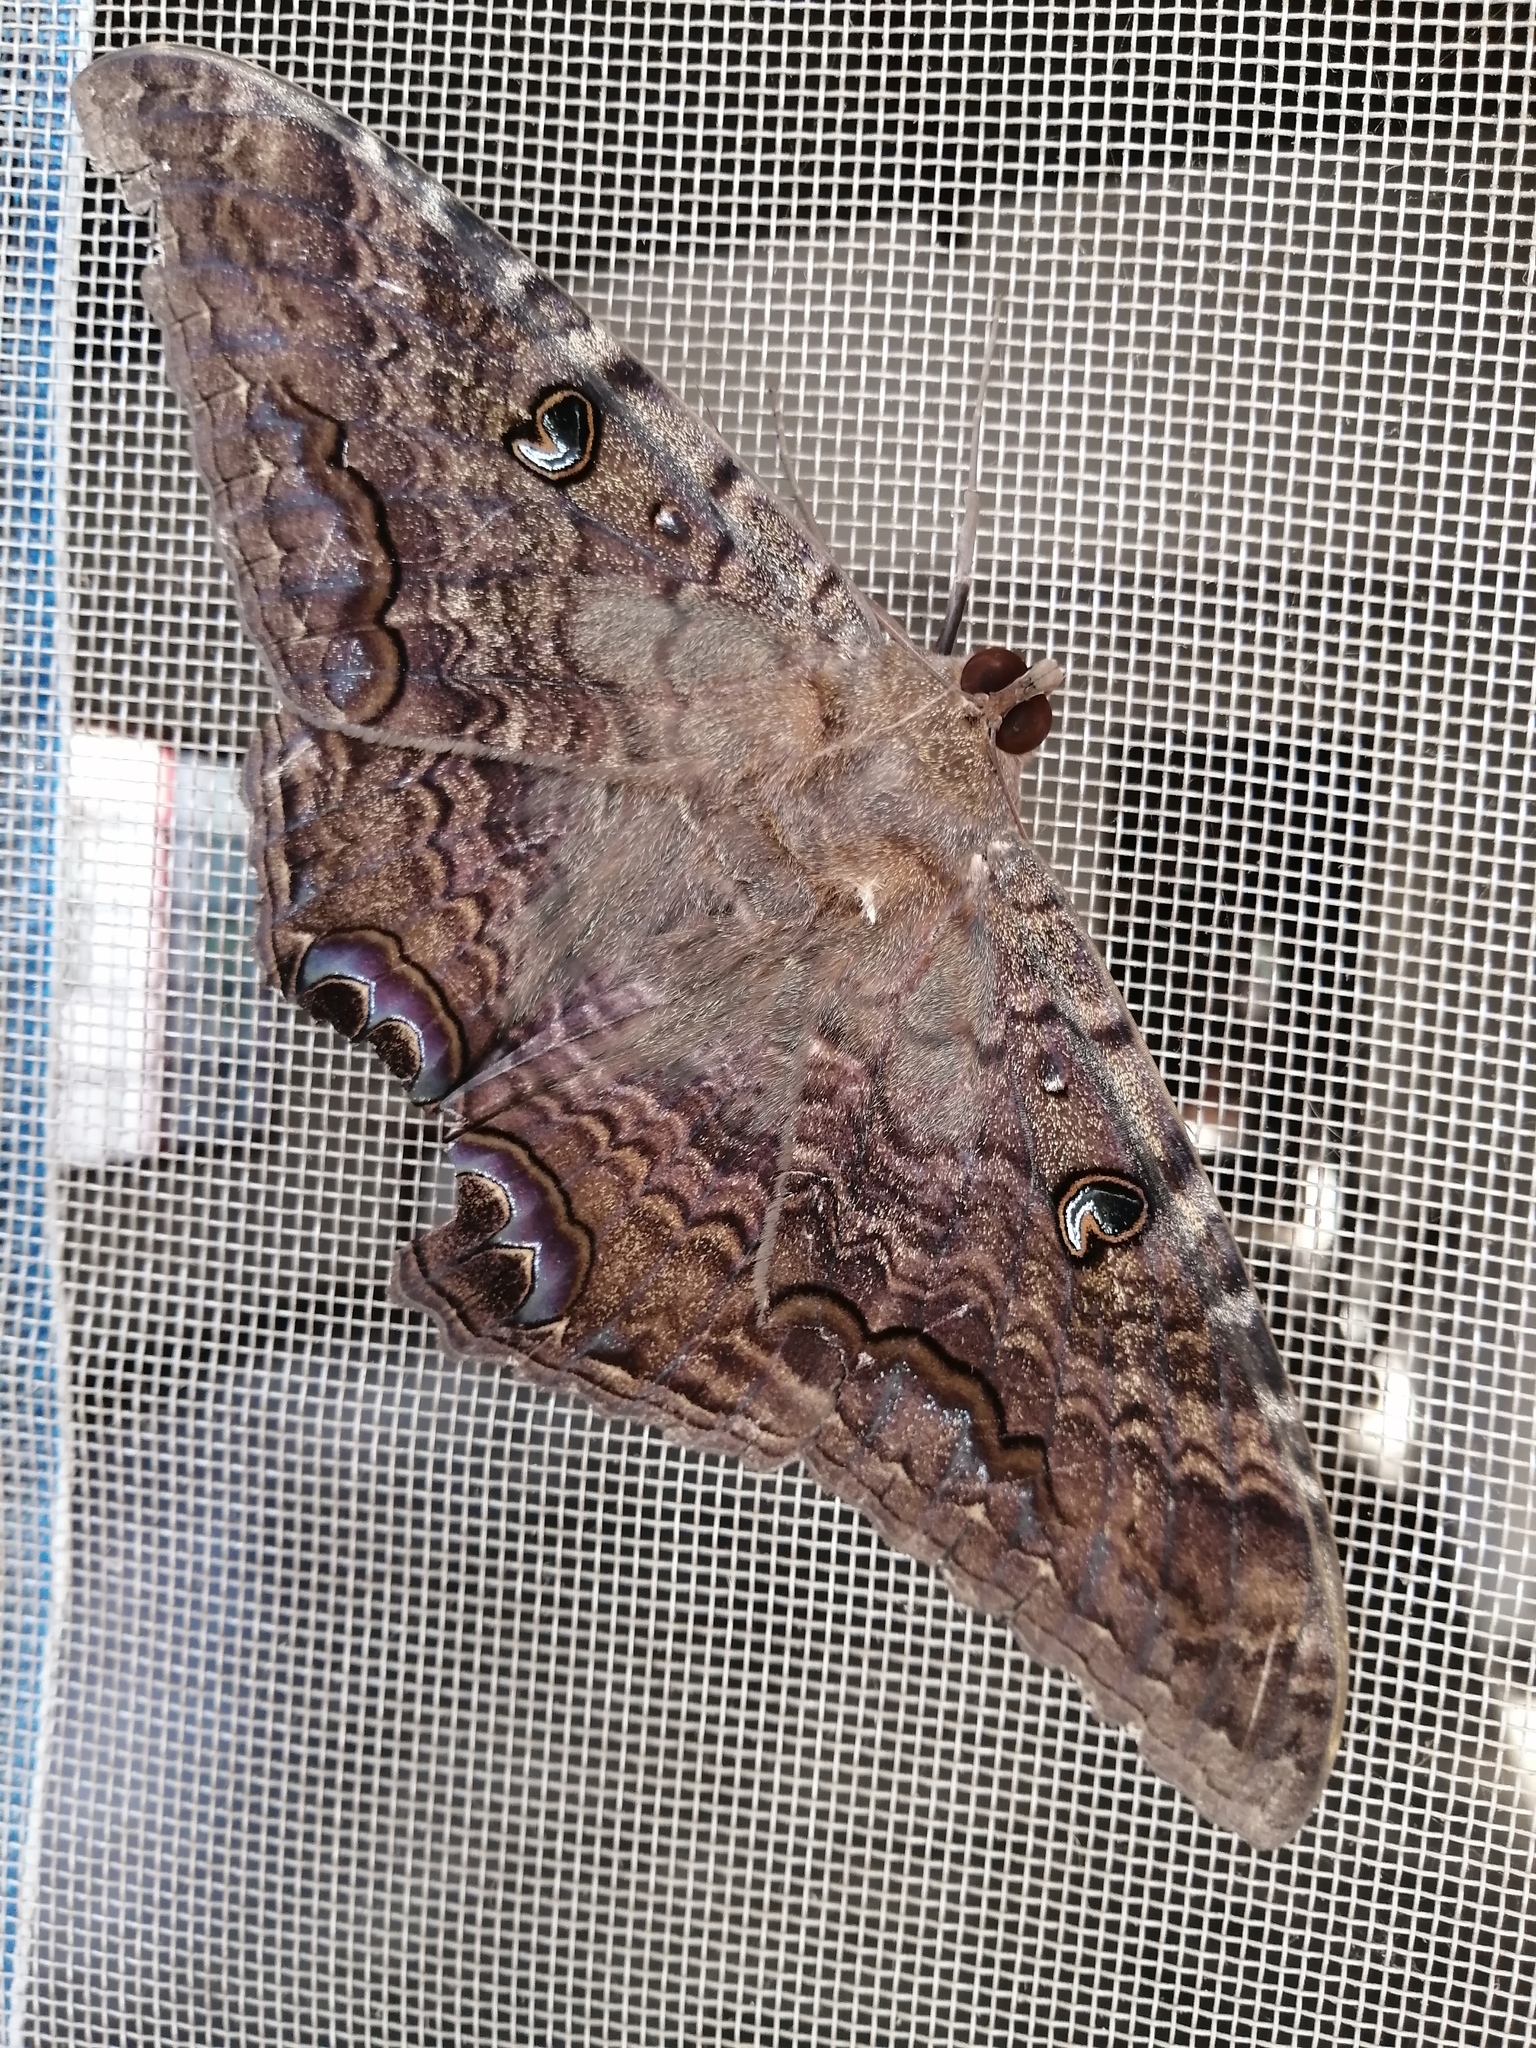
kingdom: Animalia
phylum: Arthropoda
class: Insecta
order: Lepidoptera
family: Erebidae
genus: Ascalapha
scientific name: Ascalapha odorata
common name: Black witch
